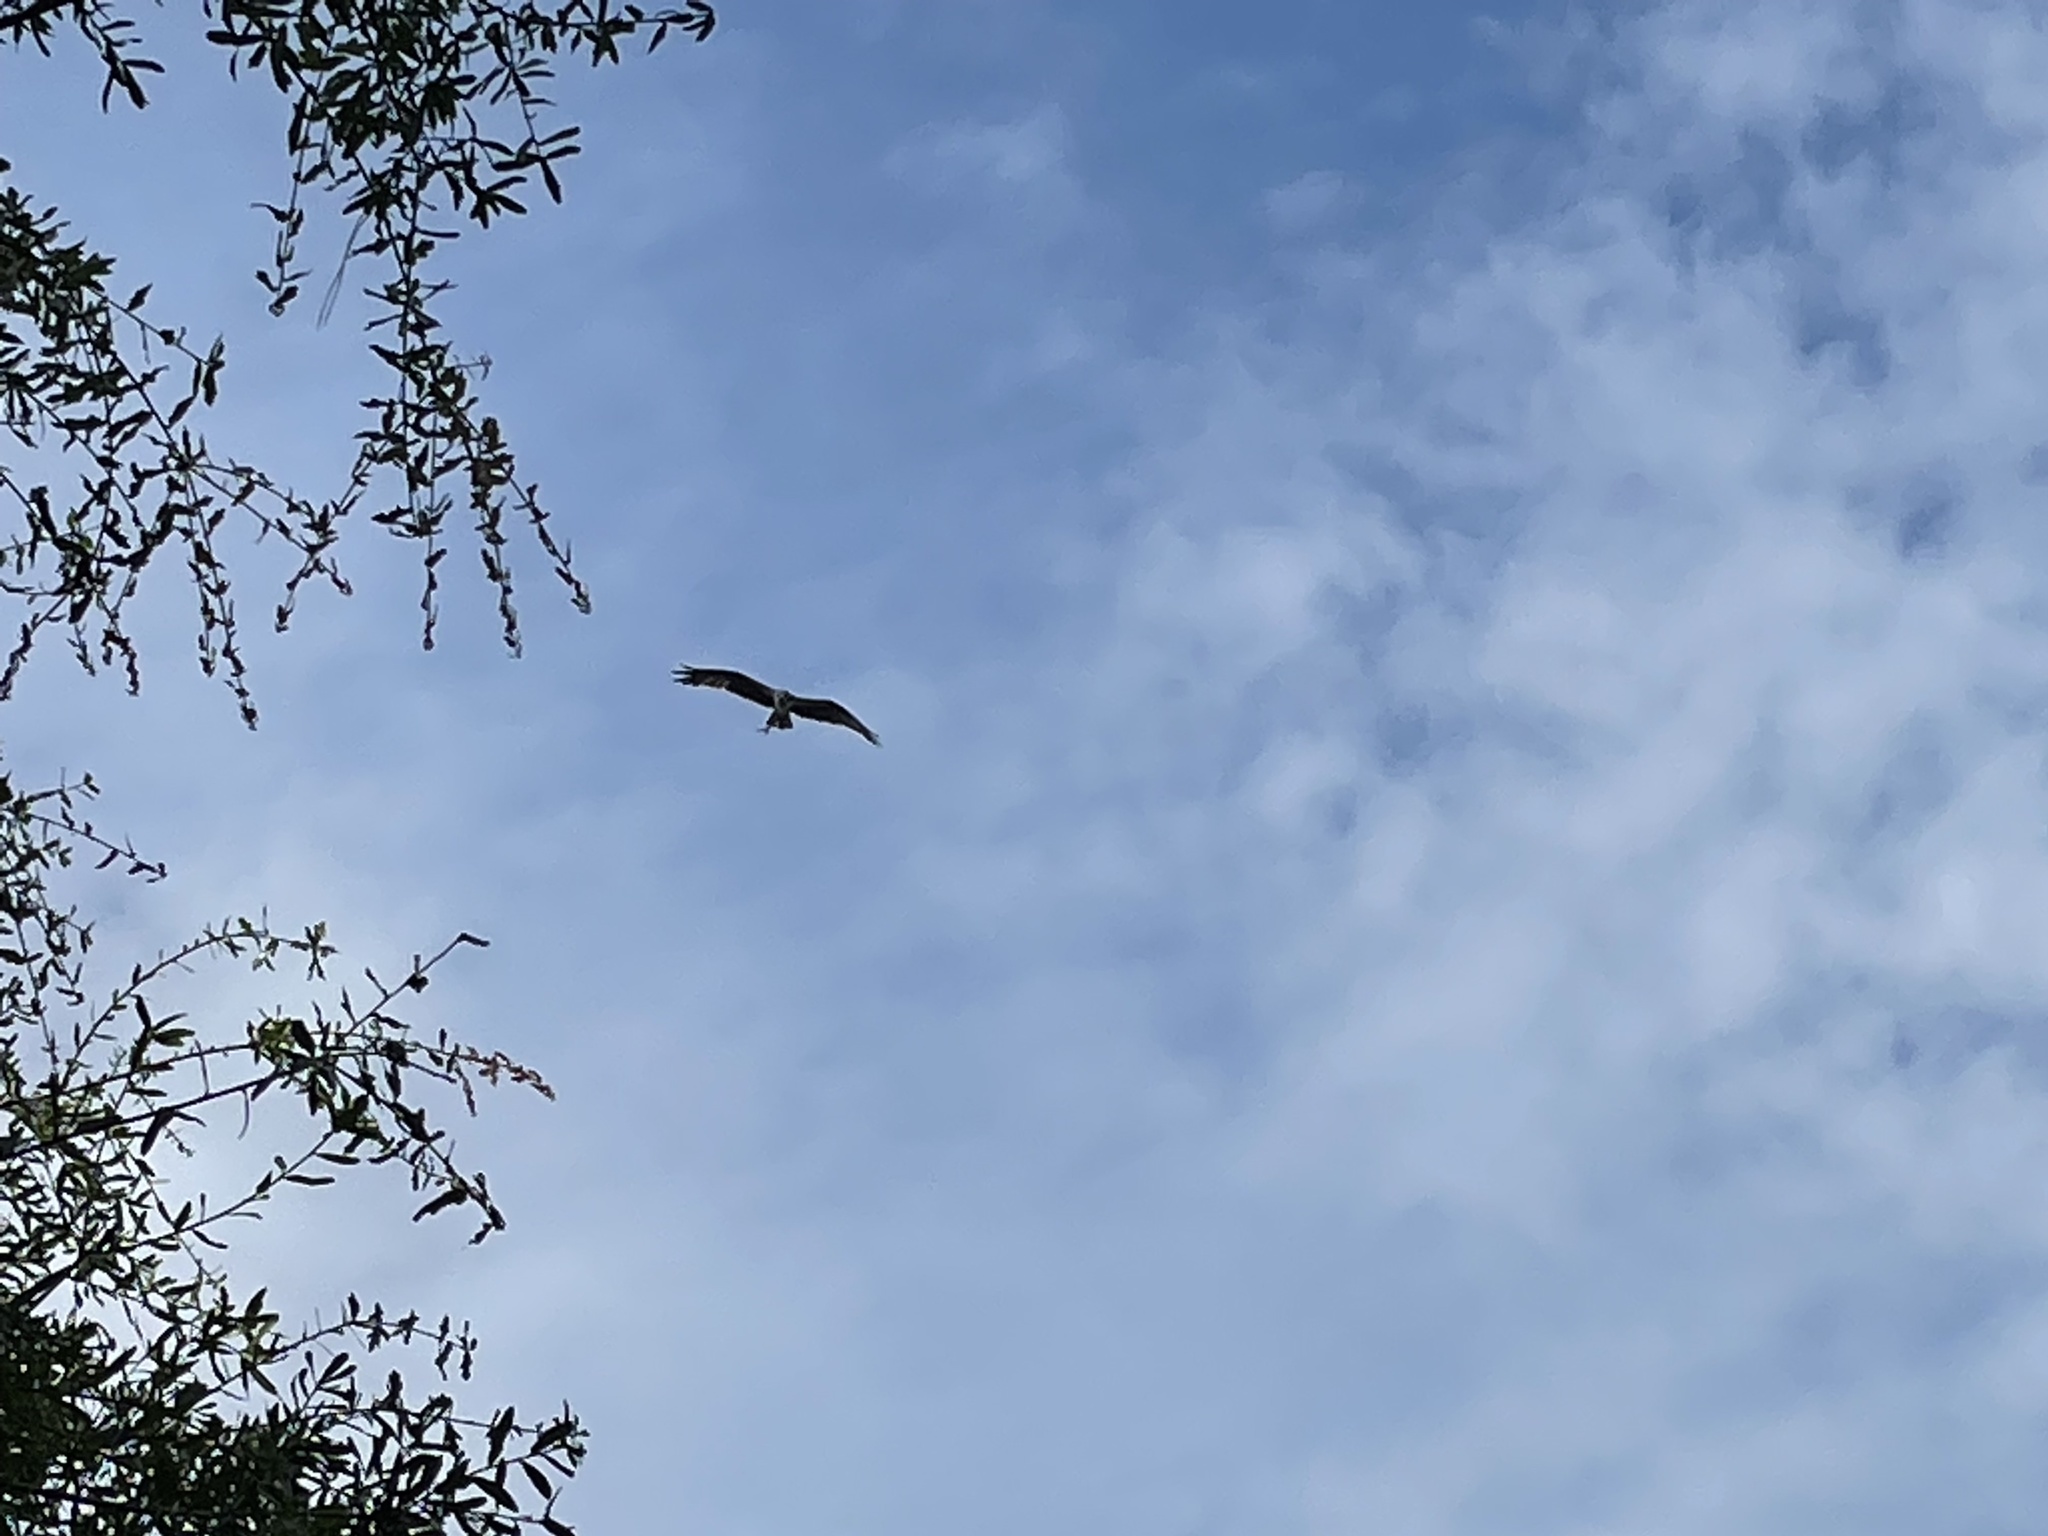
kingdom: Animalia
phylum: Chordata
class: Aves
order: Accipitriformes
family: Pandionidae
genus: Pandion
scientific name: Pandion haliaetus
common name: Osprey
